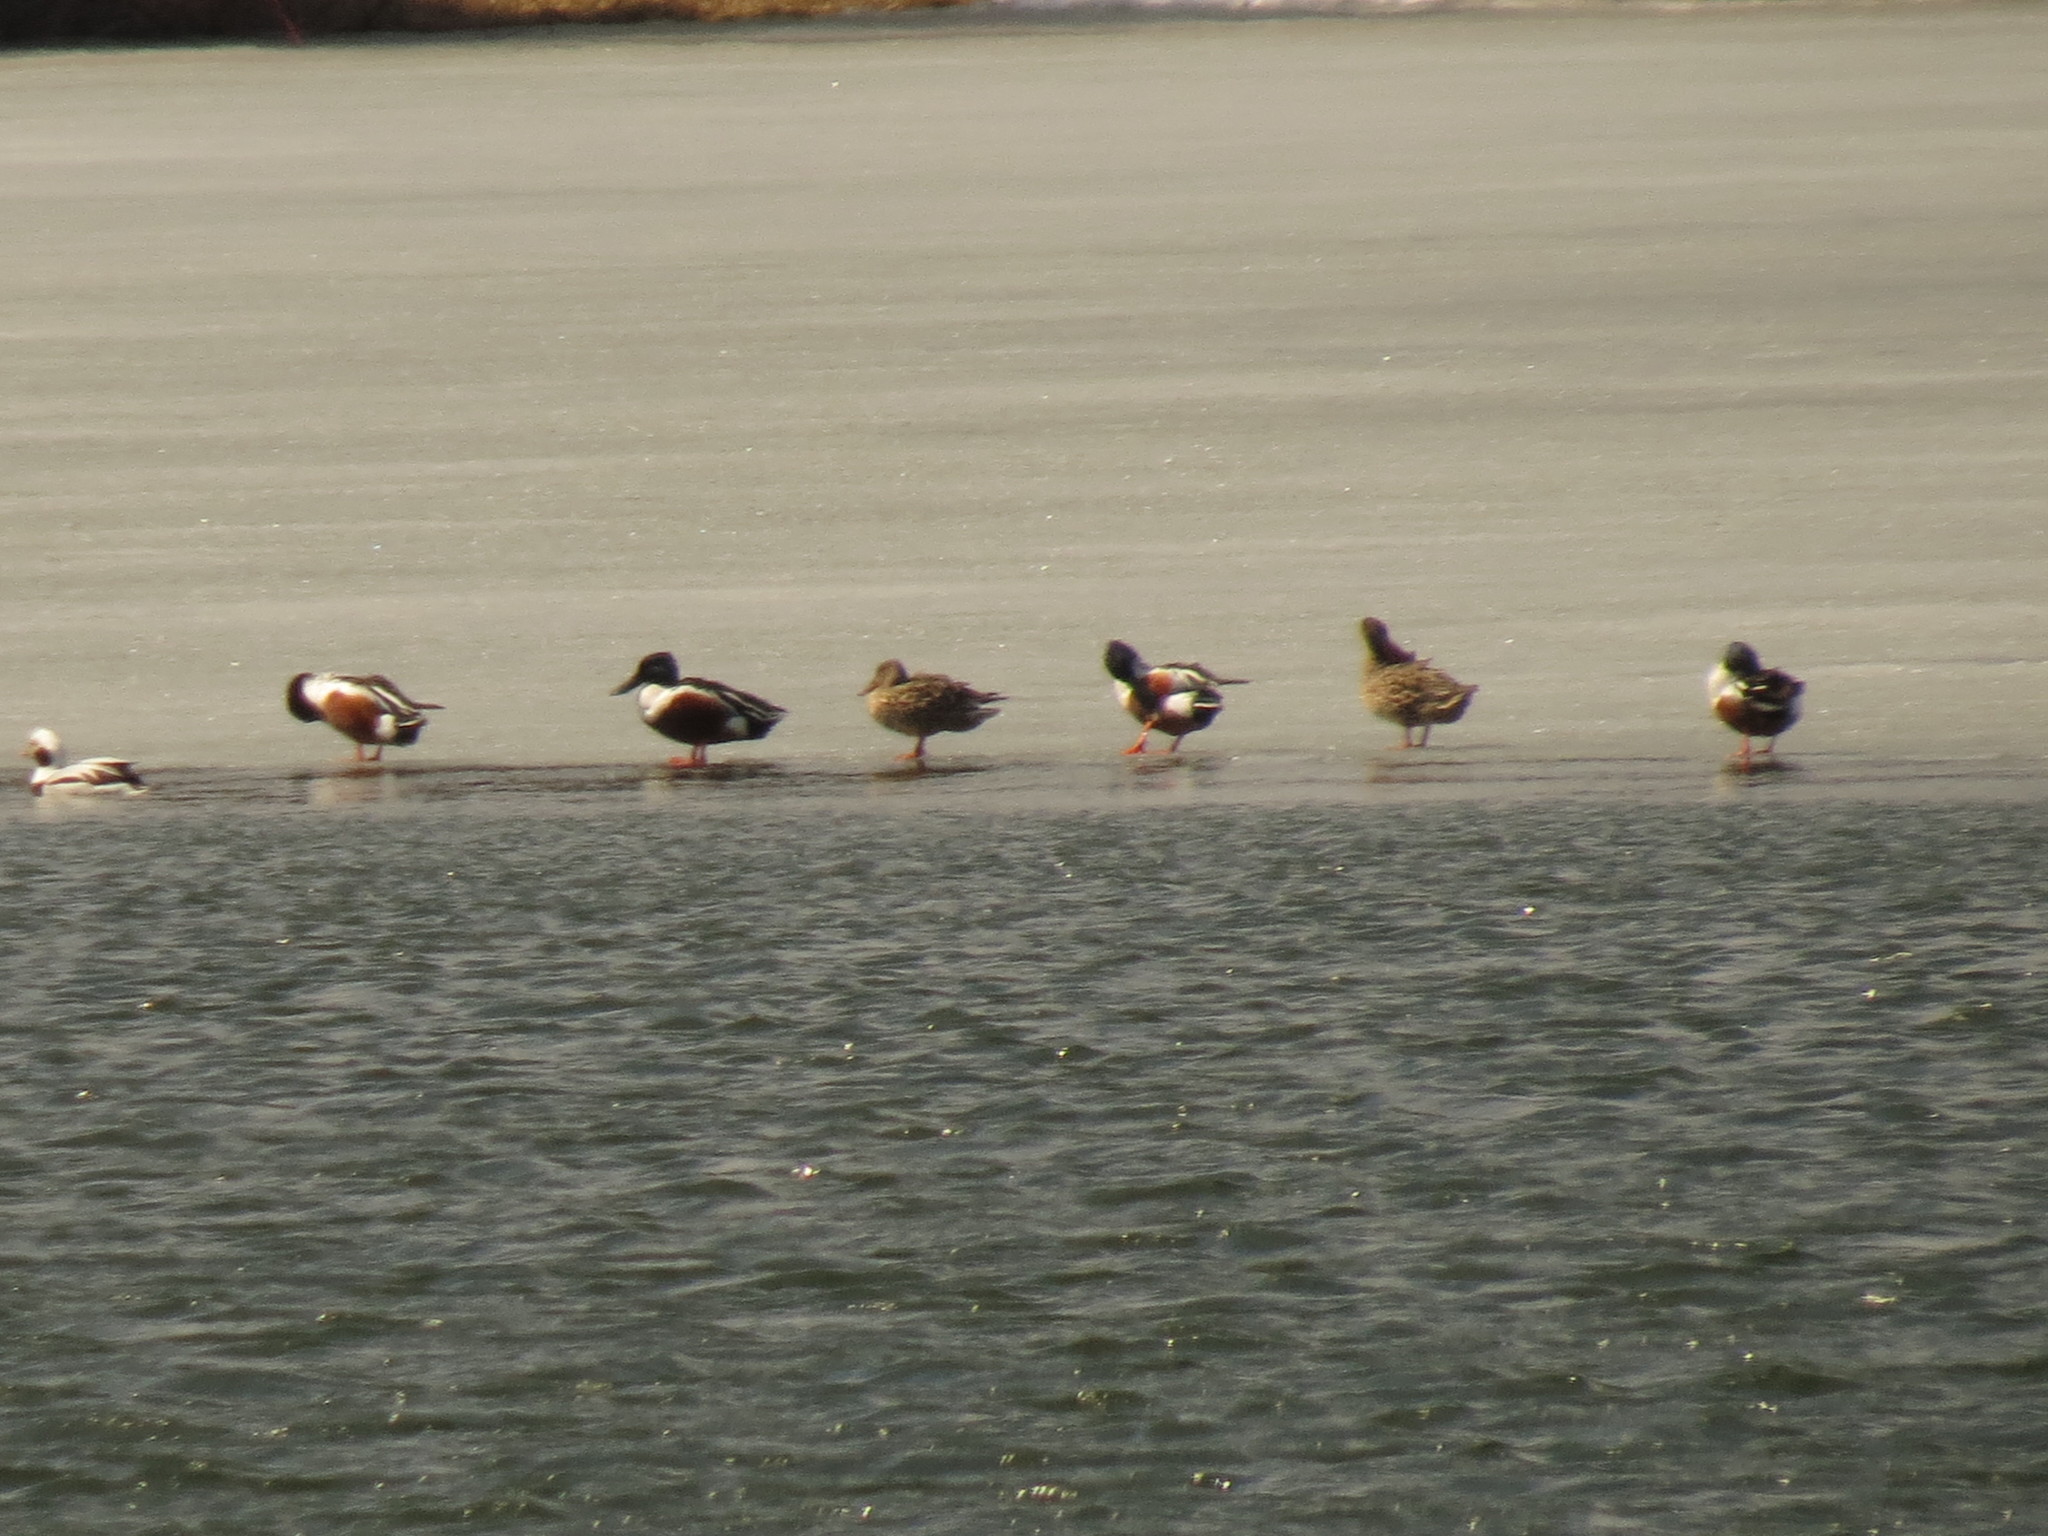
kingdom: Animalia
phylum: Chordata
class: Aves
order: Anseriformes
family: Anatidae
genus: Spatula
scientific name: Spatula clypeata
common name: Northern shoveler
